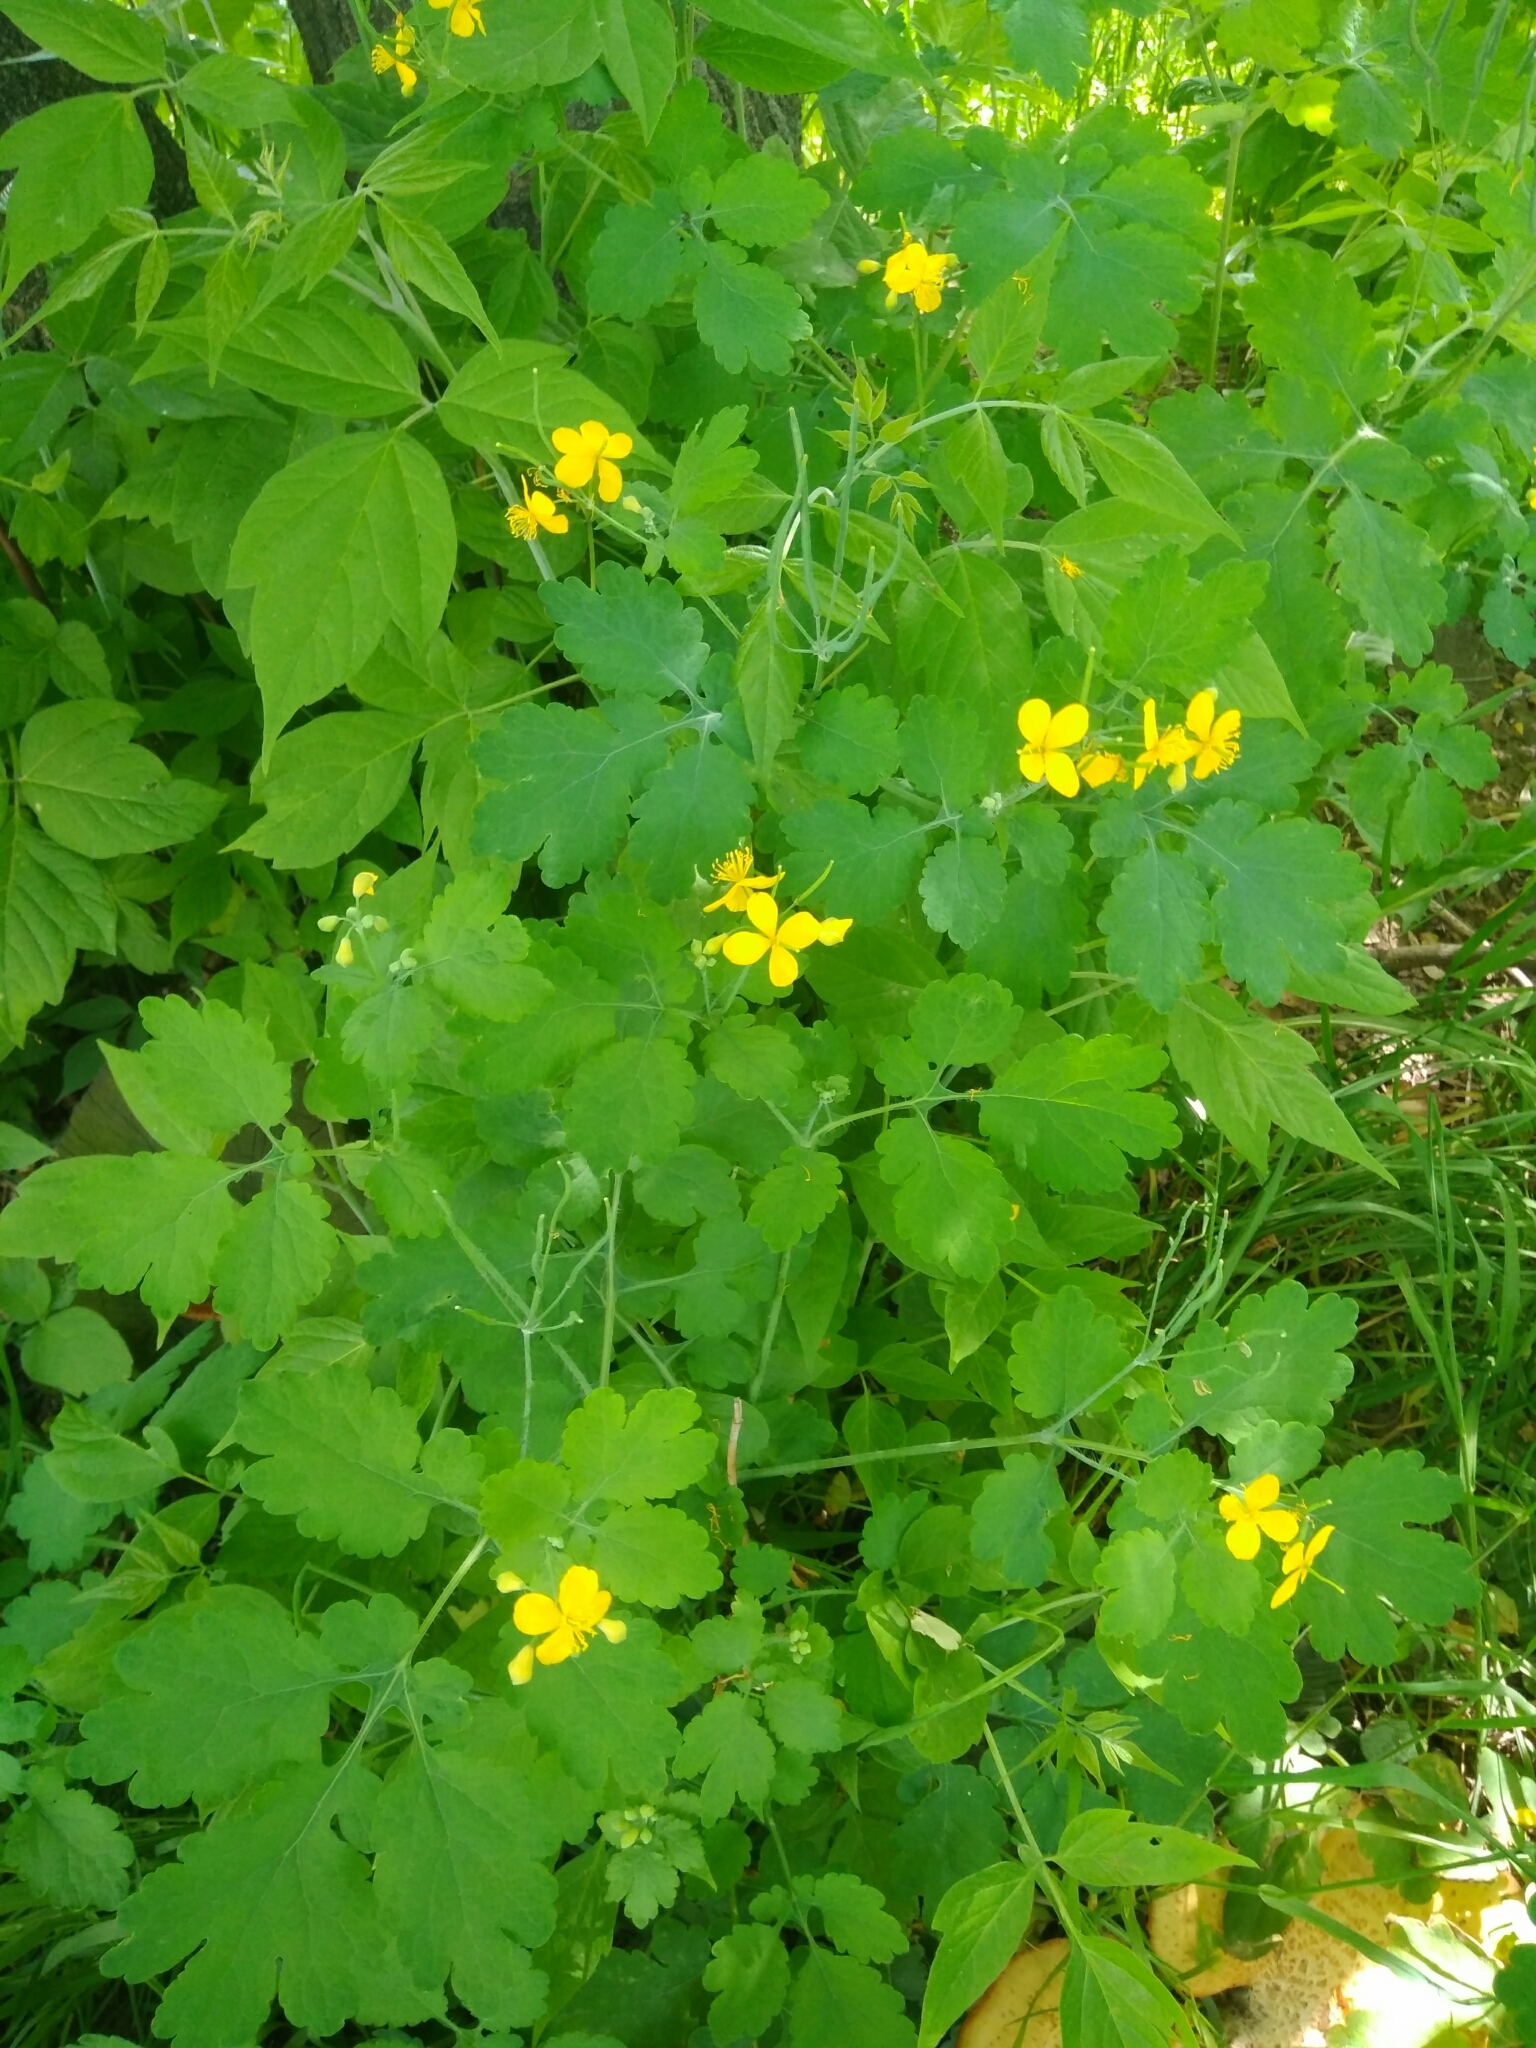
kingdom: Plantae
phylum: Tracheophyta
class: Magnoliopsida
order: Ranunculales
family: Papaveraceae
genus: Chelidonium
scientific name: Chelidonium majus
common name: Greater celandine
